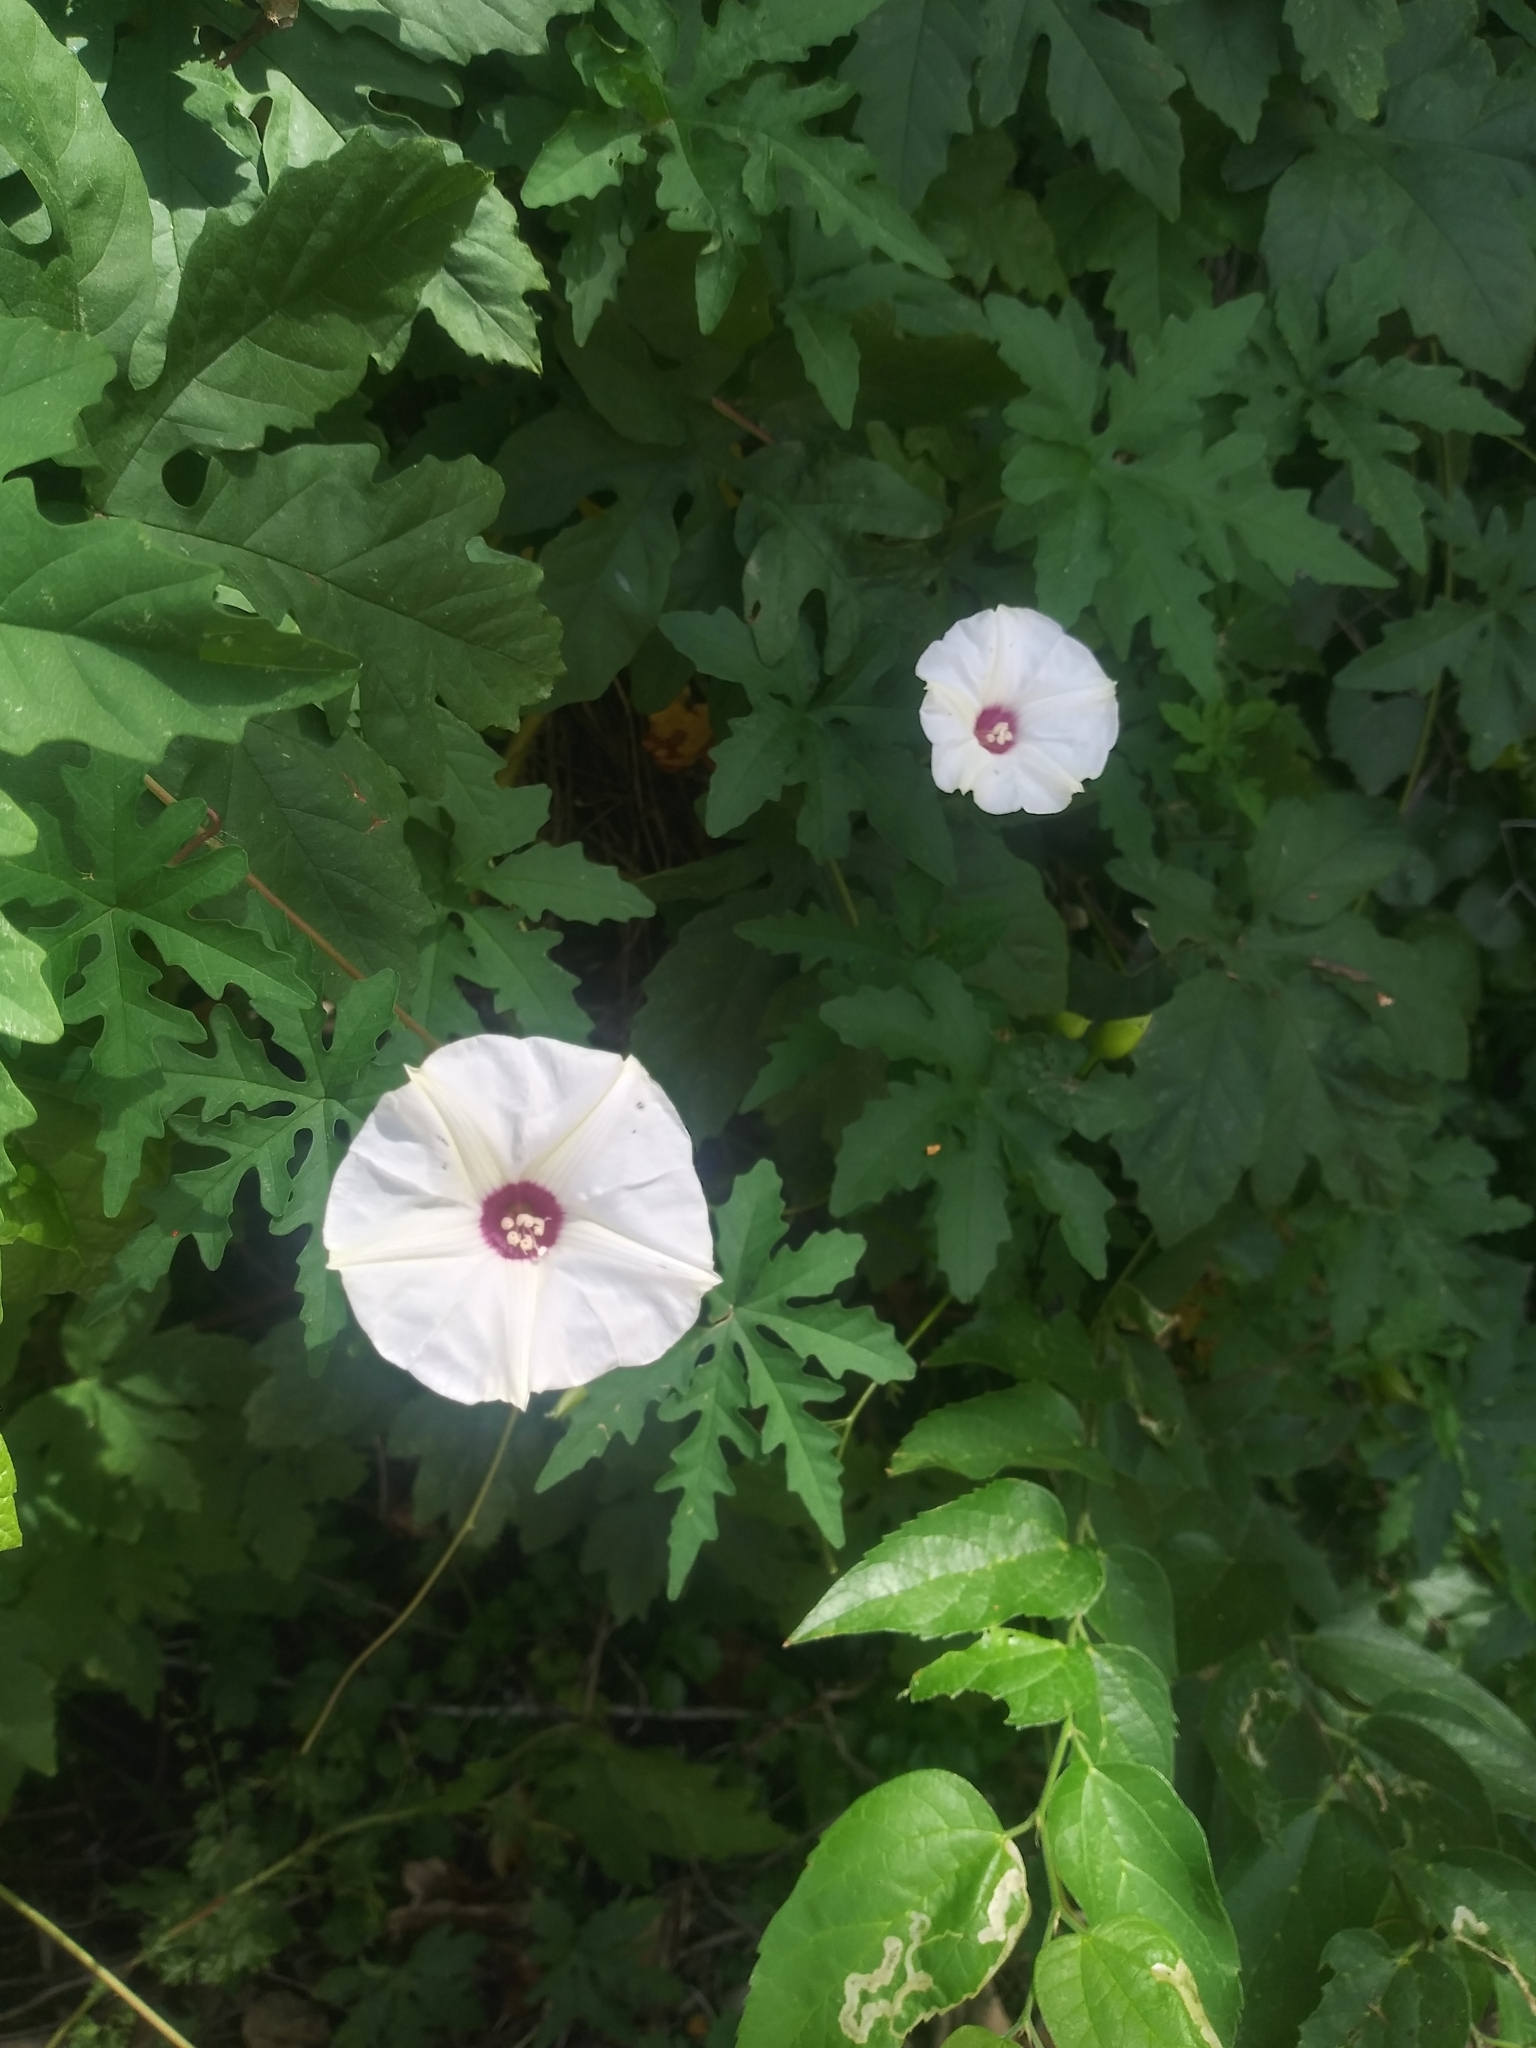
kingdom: Plantae
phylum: Tracheophyta
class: Magnoliopsida
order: Solanales
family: Convolvulaceae
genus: Distimake
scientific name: Distimake dissectus
